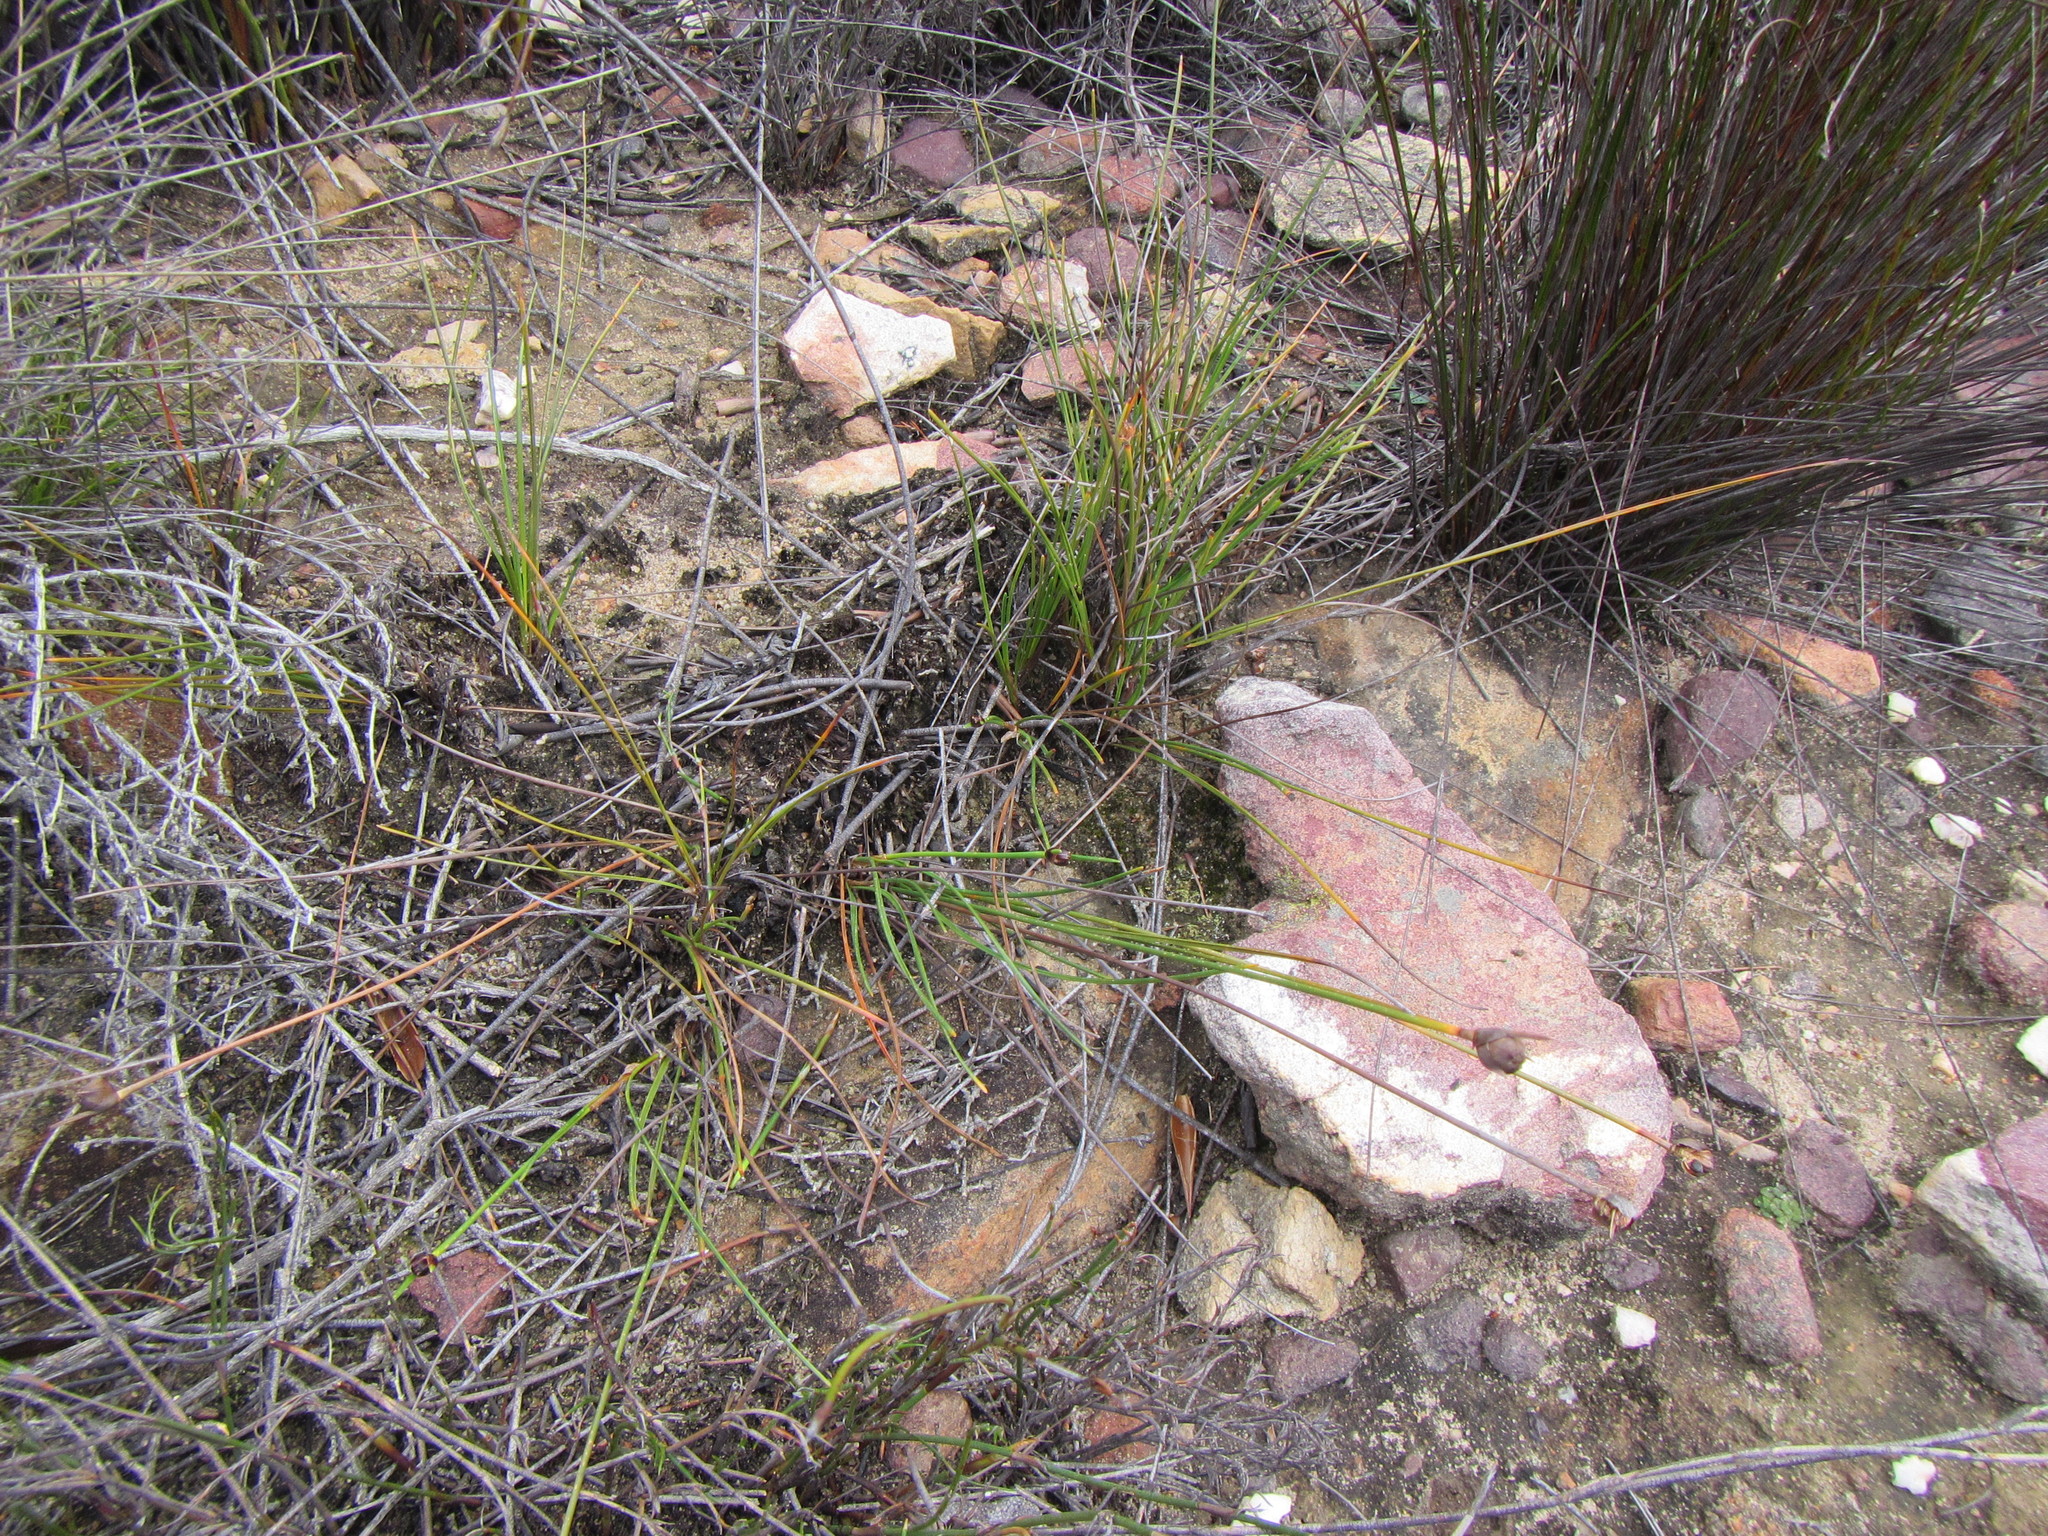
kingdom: Plantae
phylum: Tracheophyta
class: Liliopsida
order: Poales
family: Cyperaceae
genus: Ficinia
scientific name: Ficinia levynsiae
